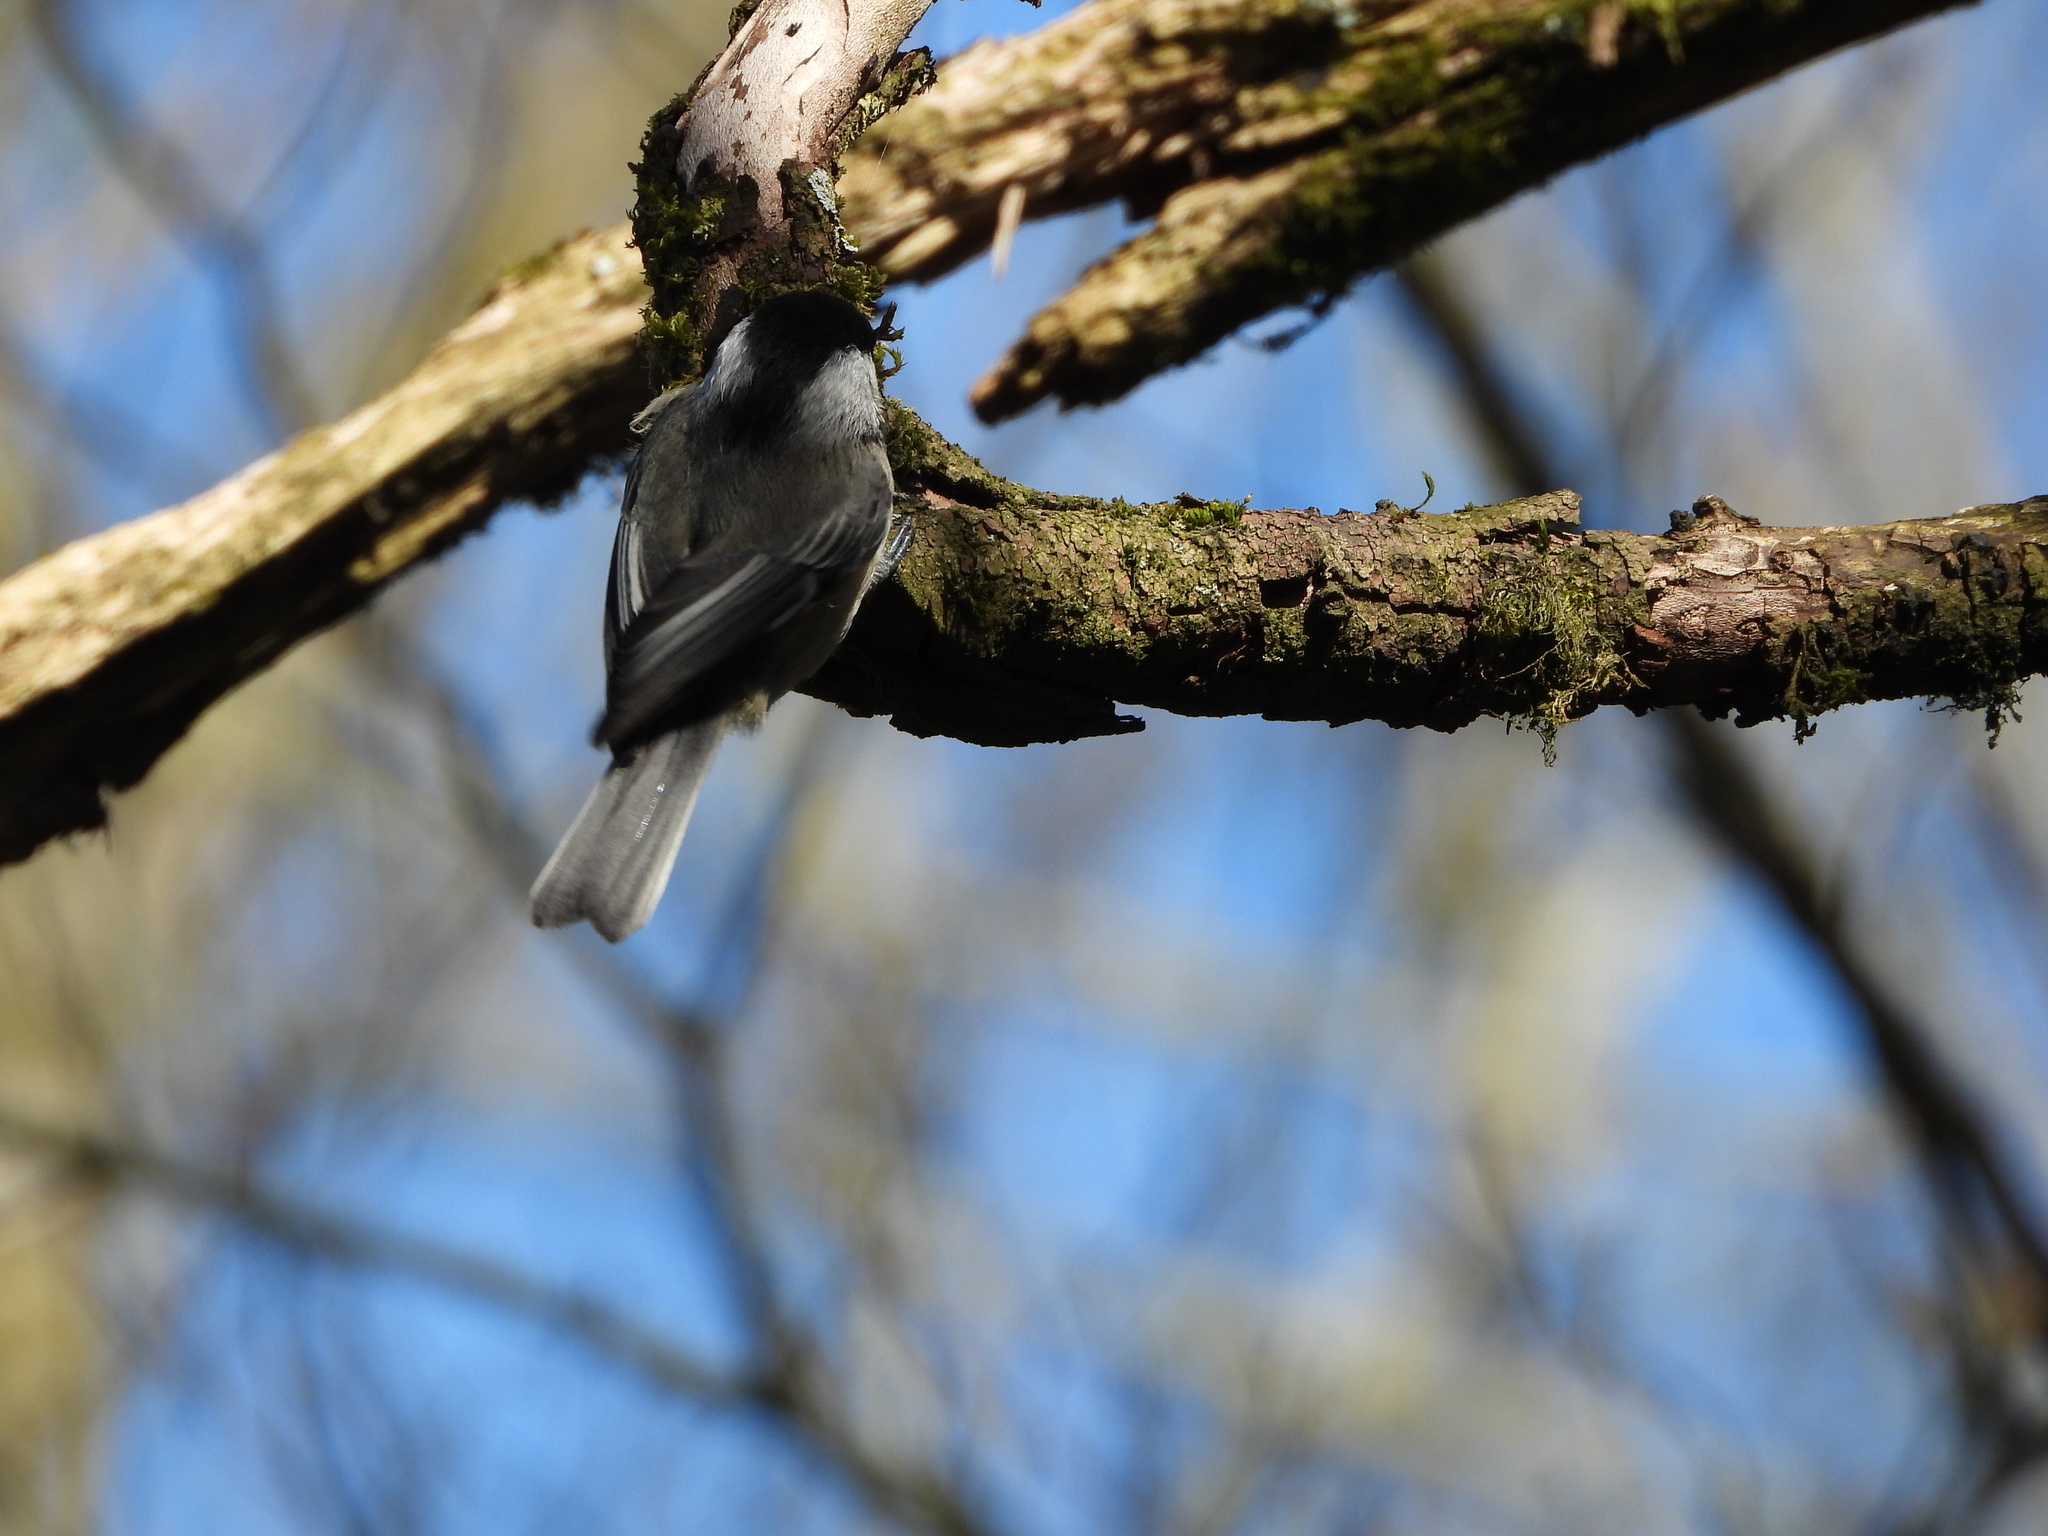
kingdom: Animalia
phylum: Chordata
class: Aves
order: Passeriformes
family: Paridae
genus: Poecile
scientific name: Poecile atricapillus
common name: Black-capped chickadee
